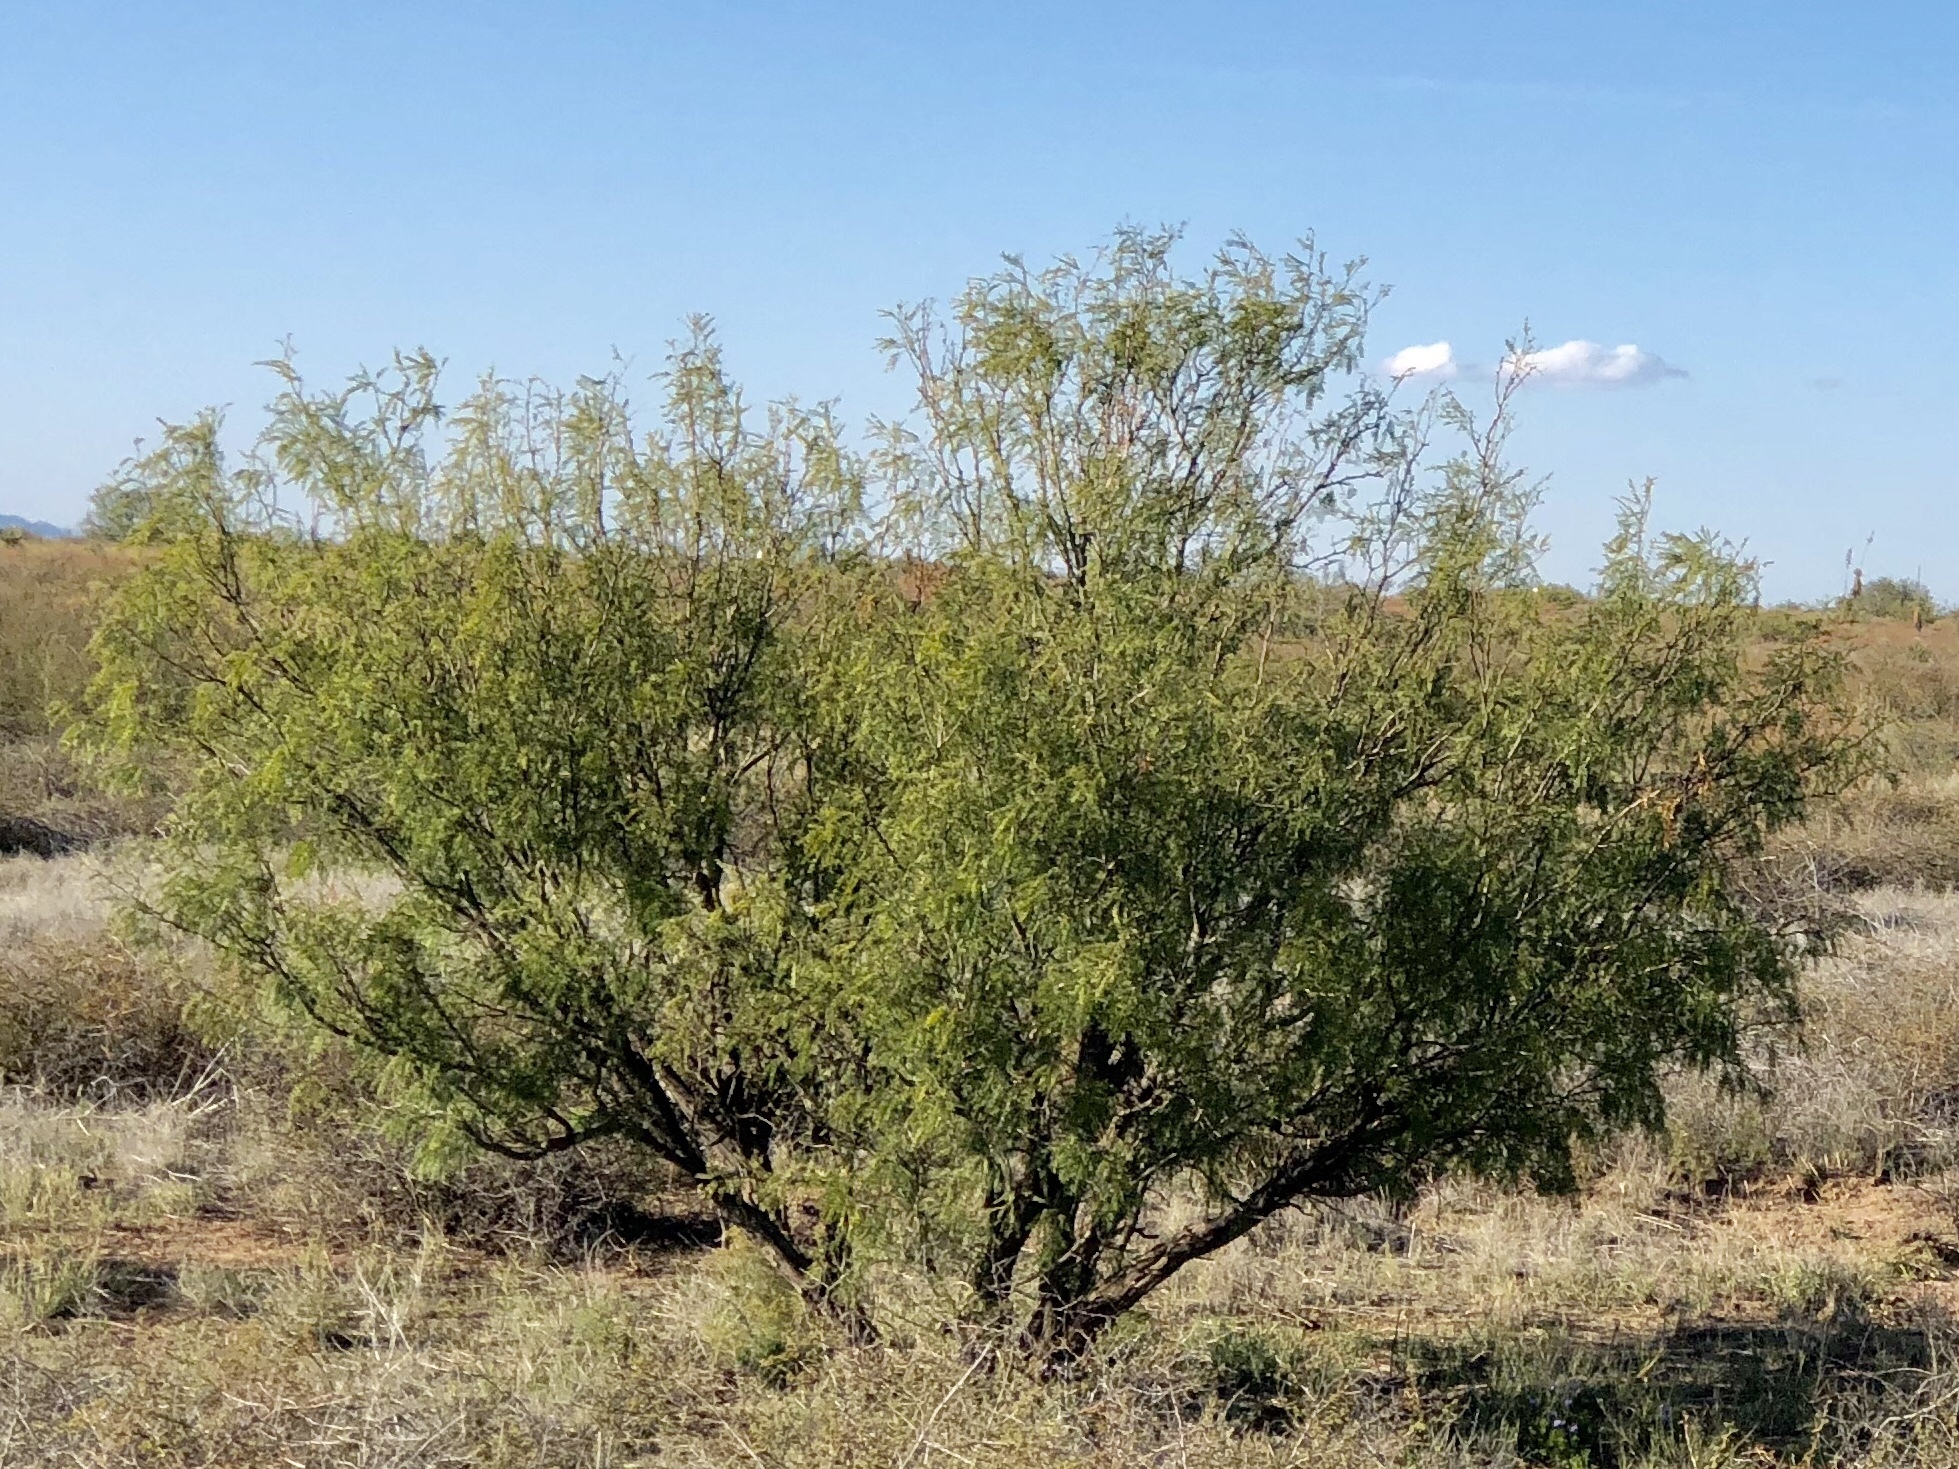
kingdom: Plantae
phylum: Tracheophyta
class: Magnoliopsida
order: Fabales
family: Fabaceae
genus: Prosopis
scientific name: Prosopis glandulosa
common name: Honey mesquite
